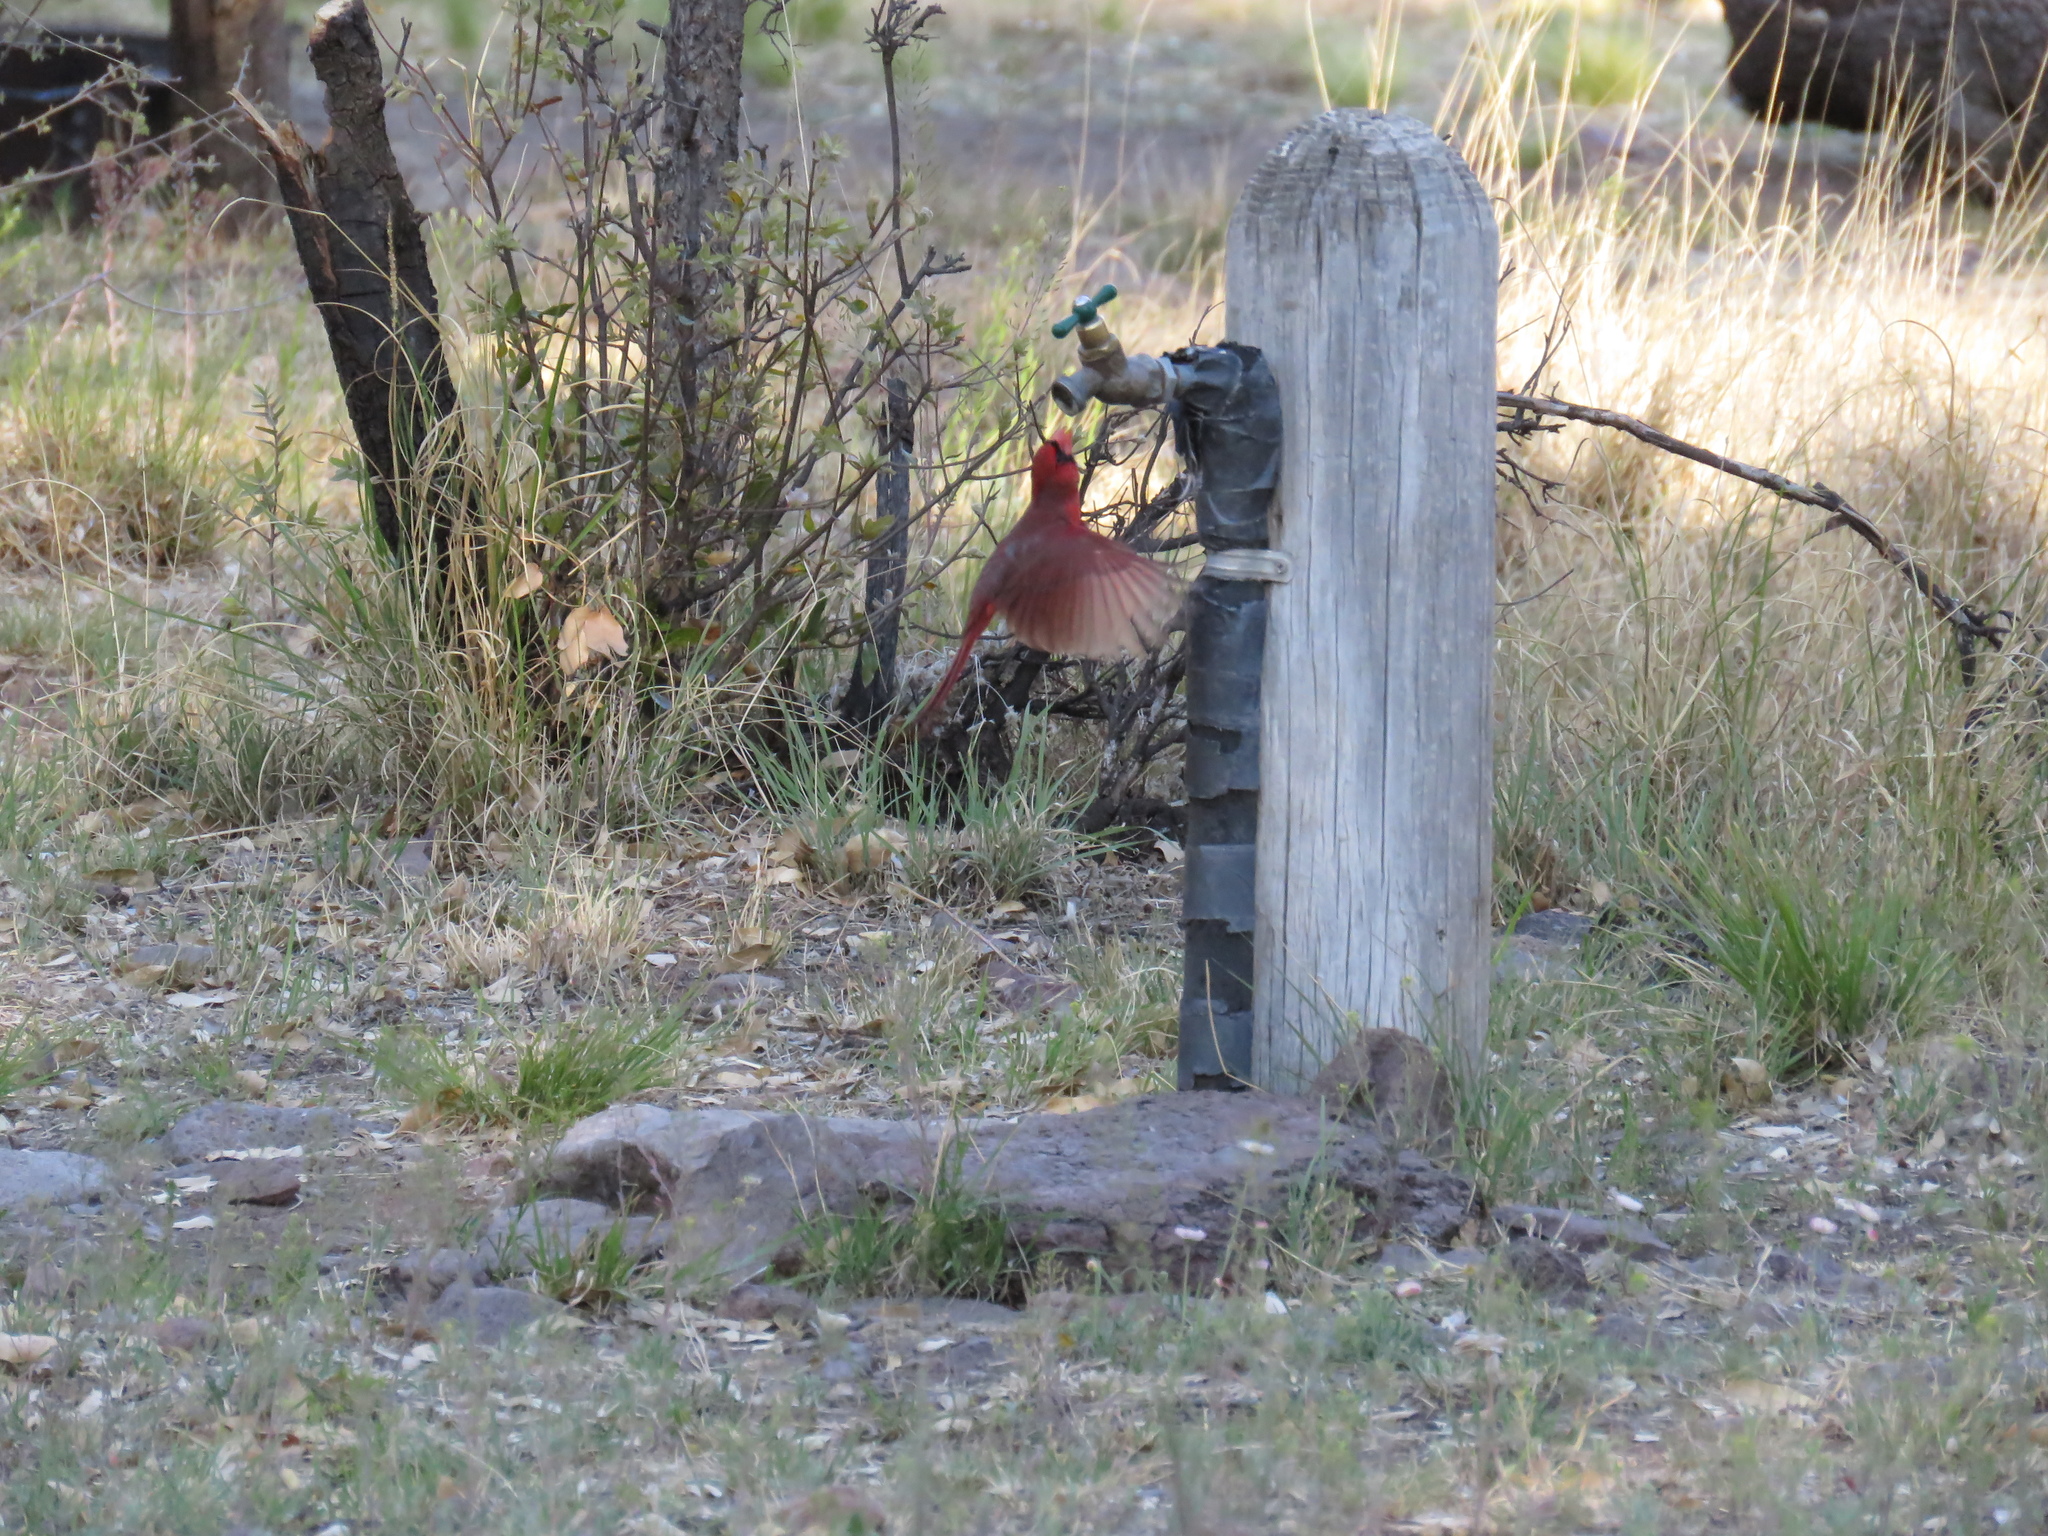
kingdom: Animalia
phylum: Chordata
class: Aves
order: Passeriformes
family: Cardinalidae
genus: Cardinalis
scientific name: Cardinalis cardinalis
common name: Northern cardinal
